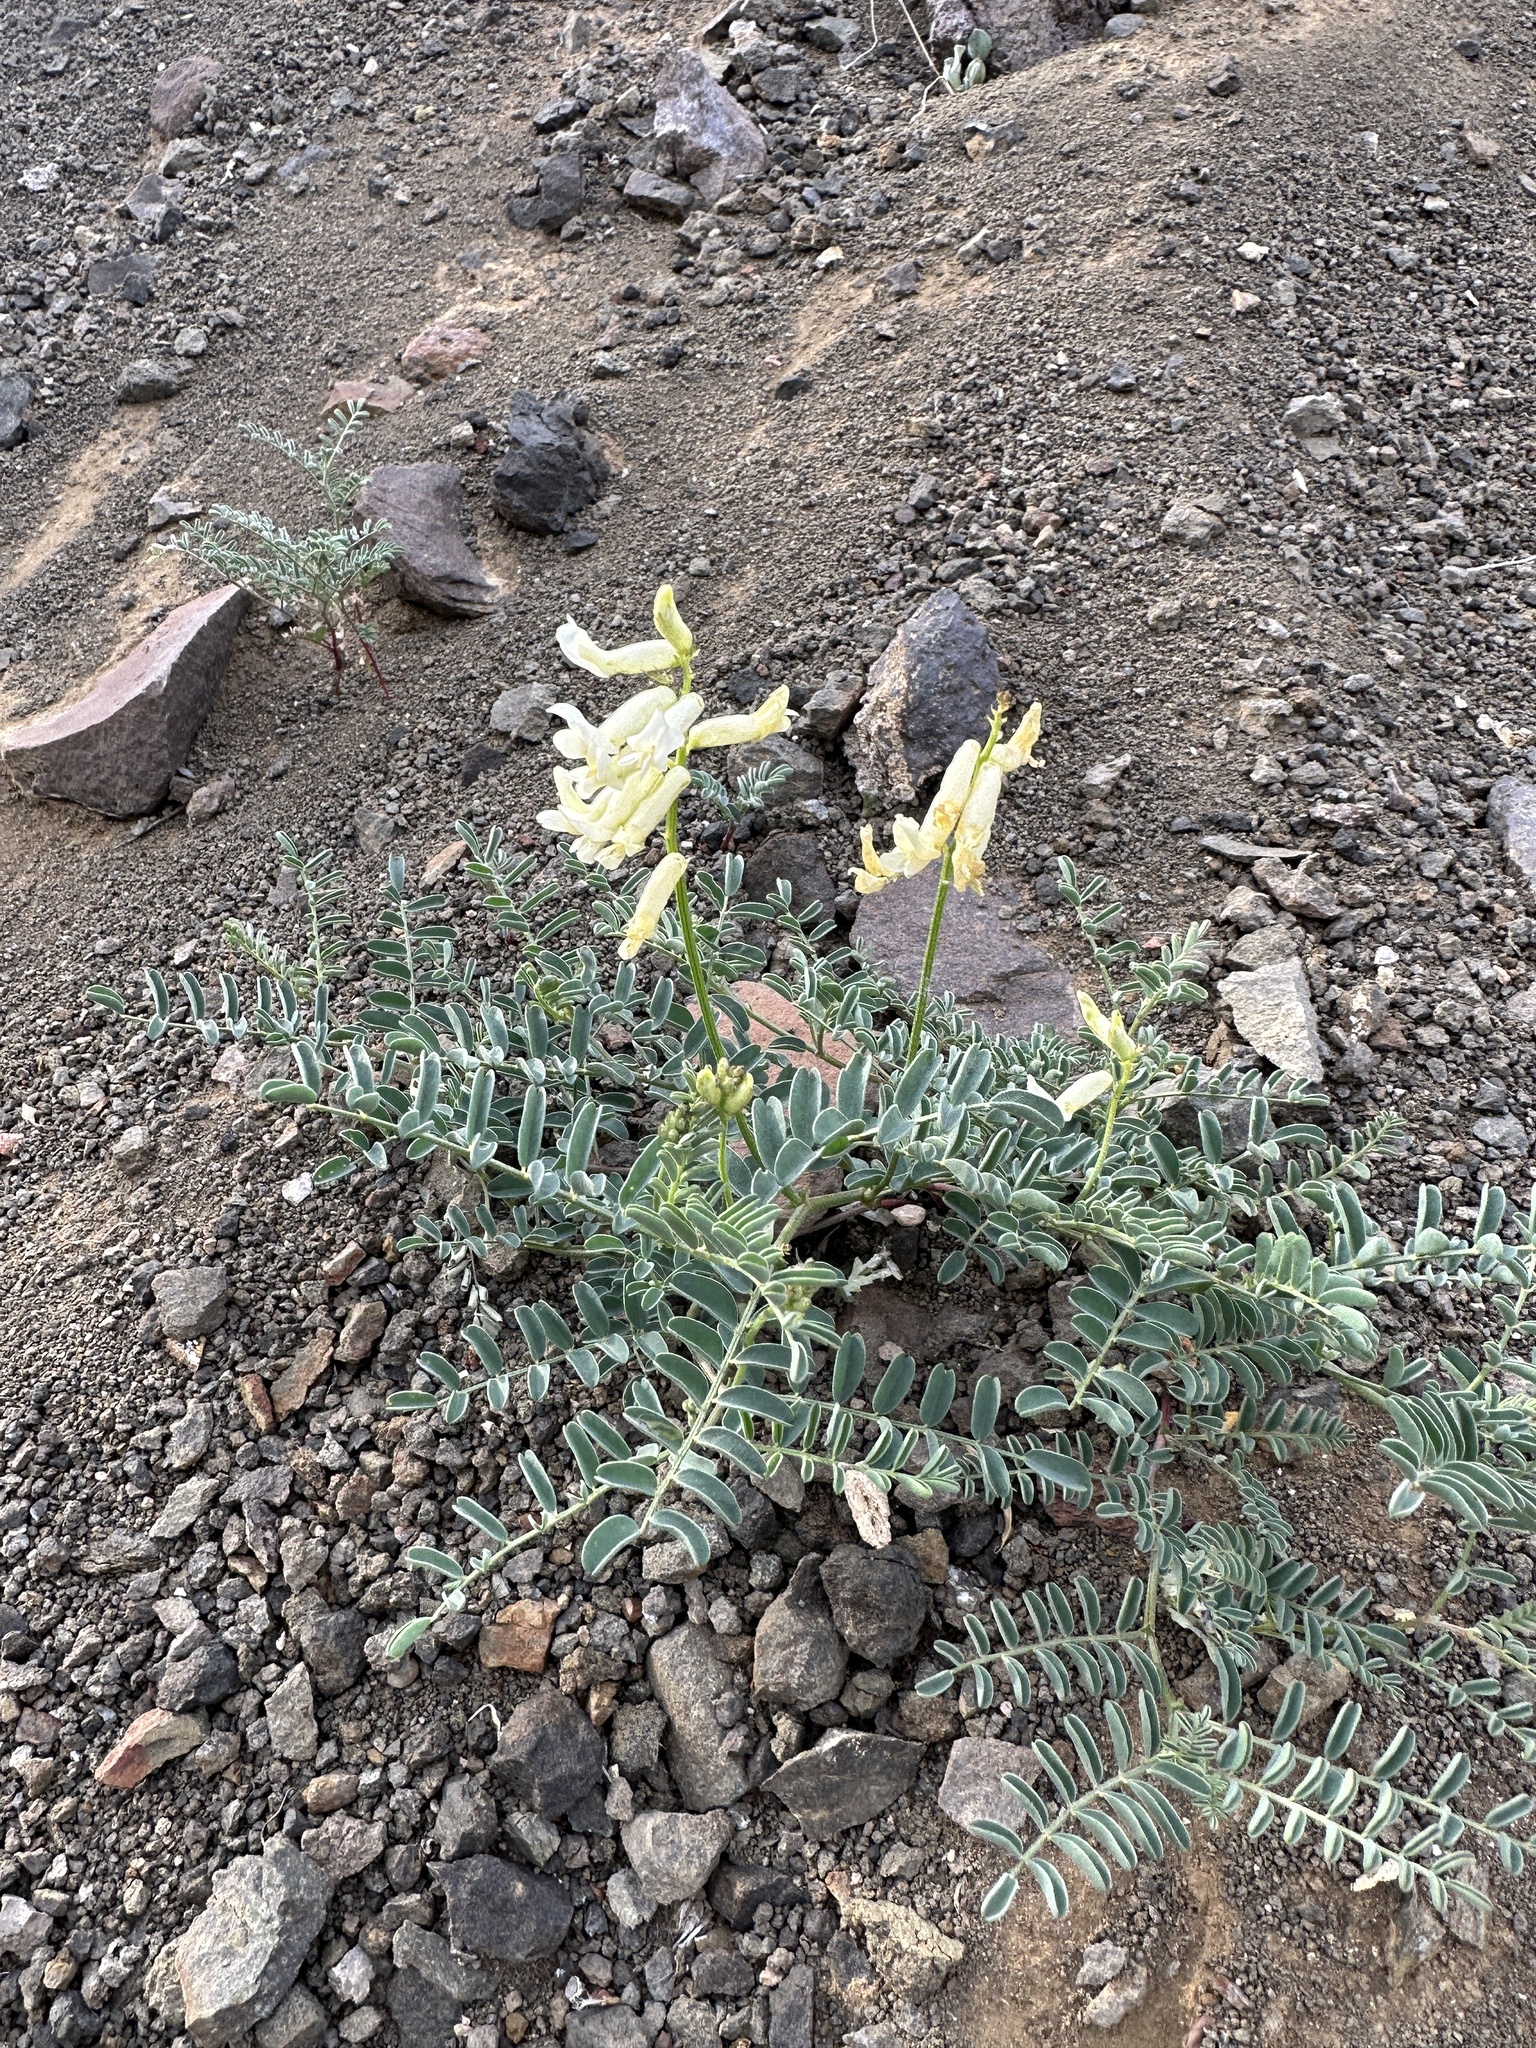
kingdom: Plantae
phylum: Tracheophyta
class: Magnoliopsida
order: Fabales
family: Fabaceae
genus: Astragalus
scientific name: Astragalus curvicarpus
